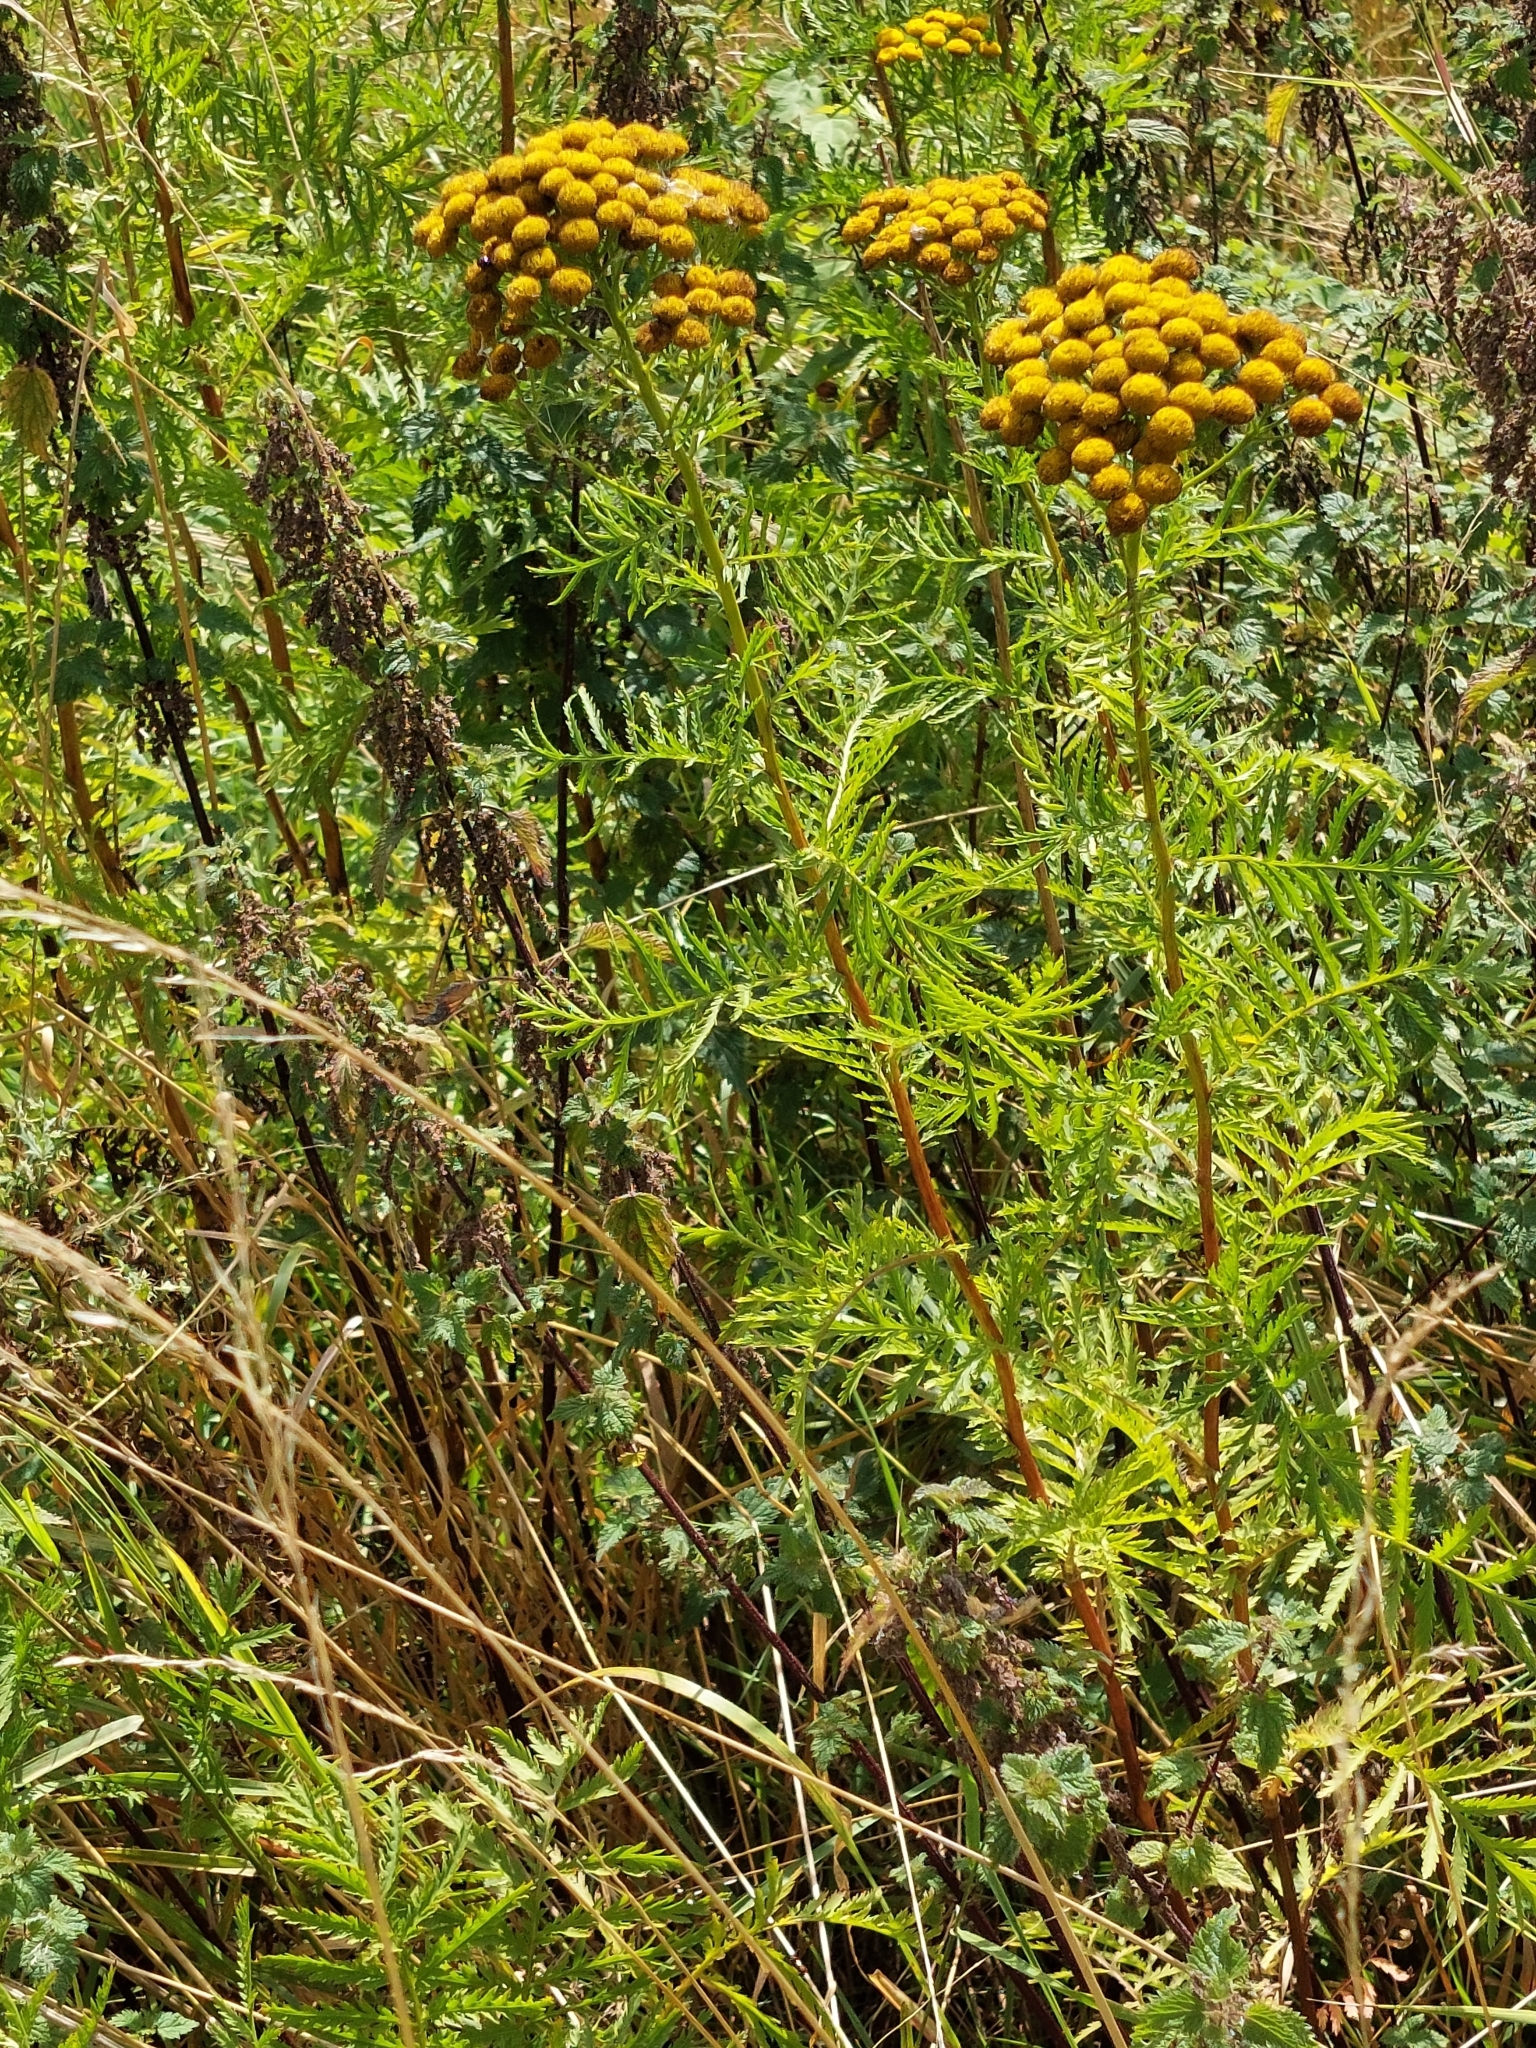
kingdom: Plantae
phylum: Tracheophyta
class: Magnoliopsida
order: Asterales
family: Asteraceae
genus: Tanacetum
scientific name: Tanacetum vulgare
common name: Common tansy
